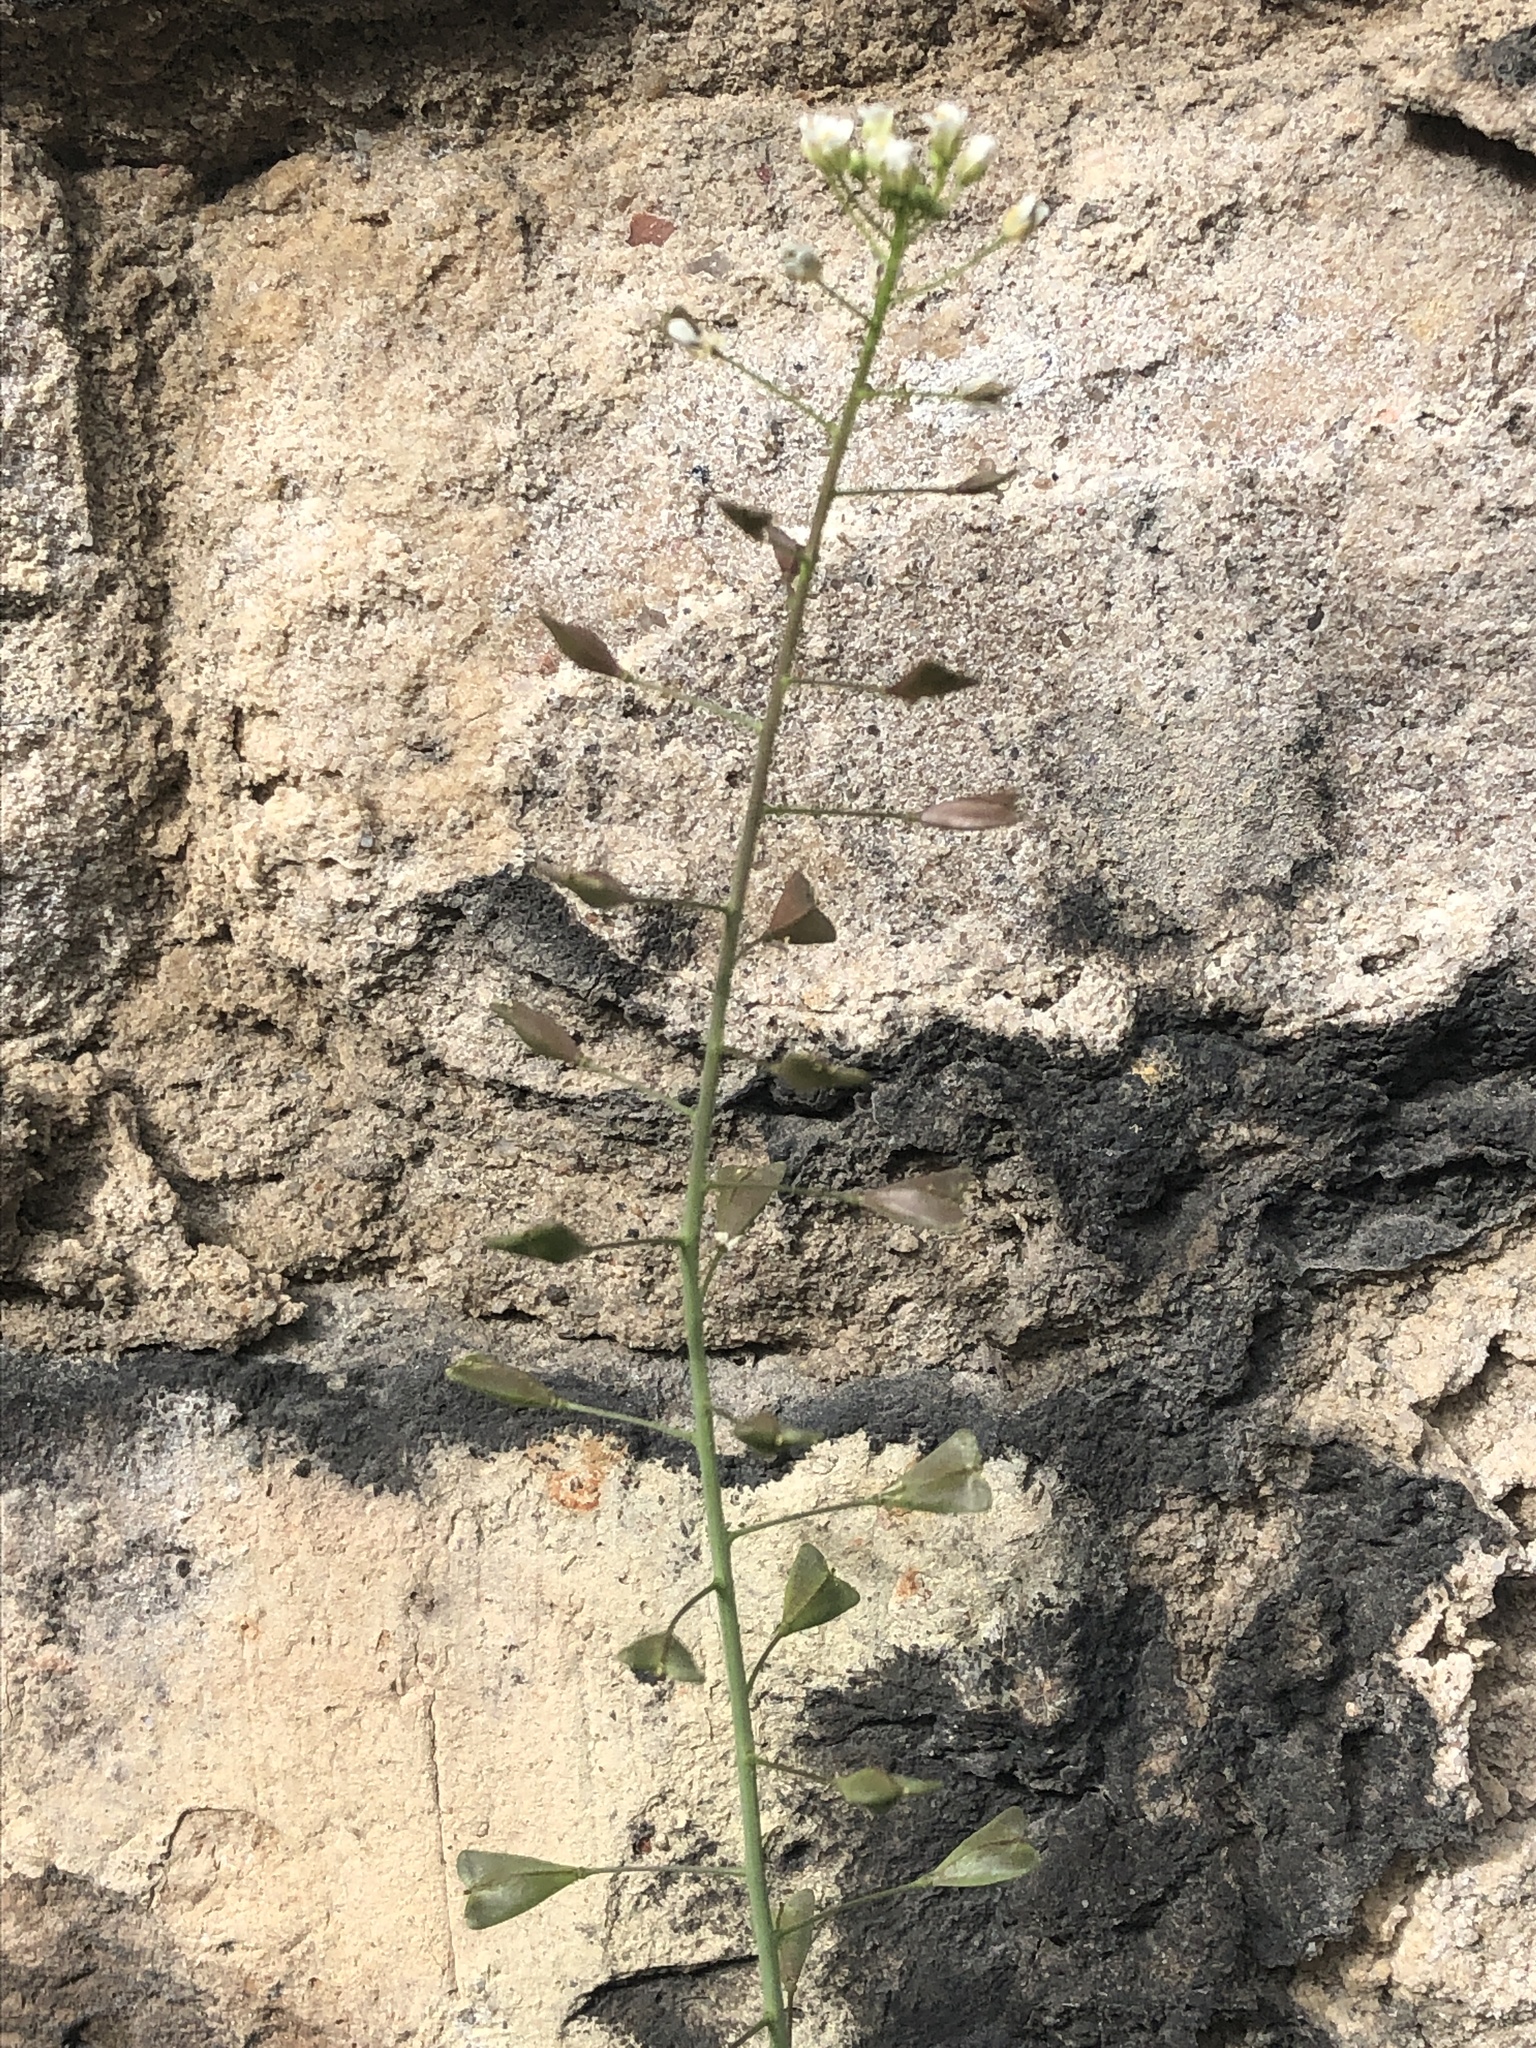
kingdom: Plantae
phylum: Tracheophyta
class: Magnoliopsida
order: Brassicales
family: Brassicaceae
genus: Capsella
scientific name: Capsella bursa-pastoris
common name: Shepherd's purse
